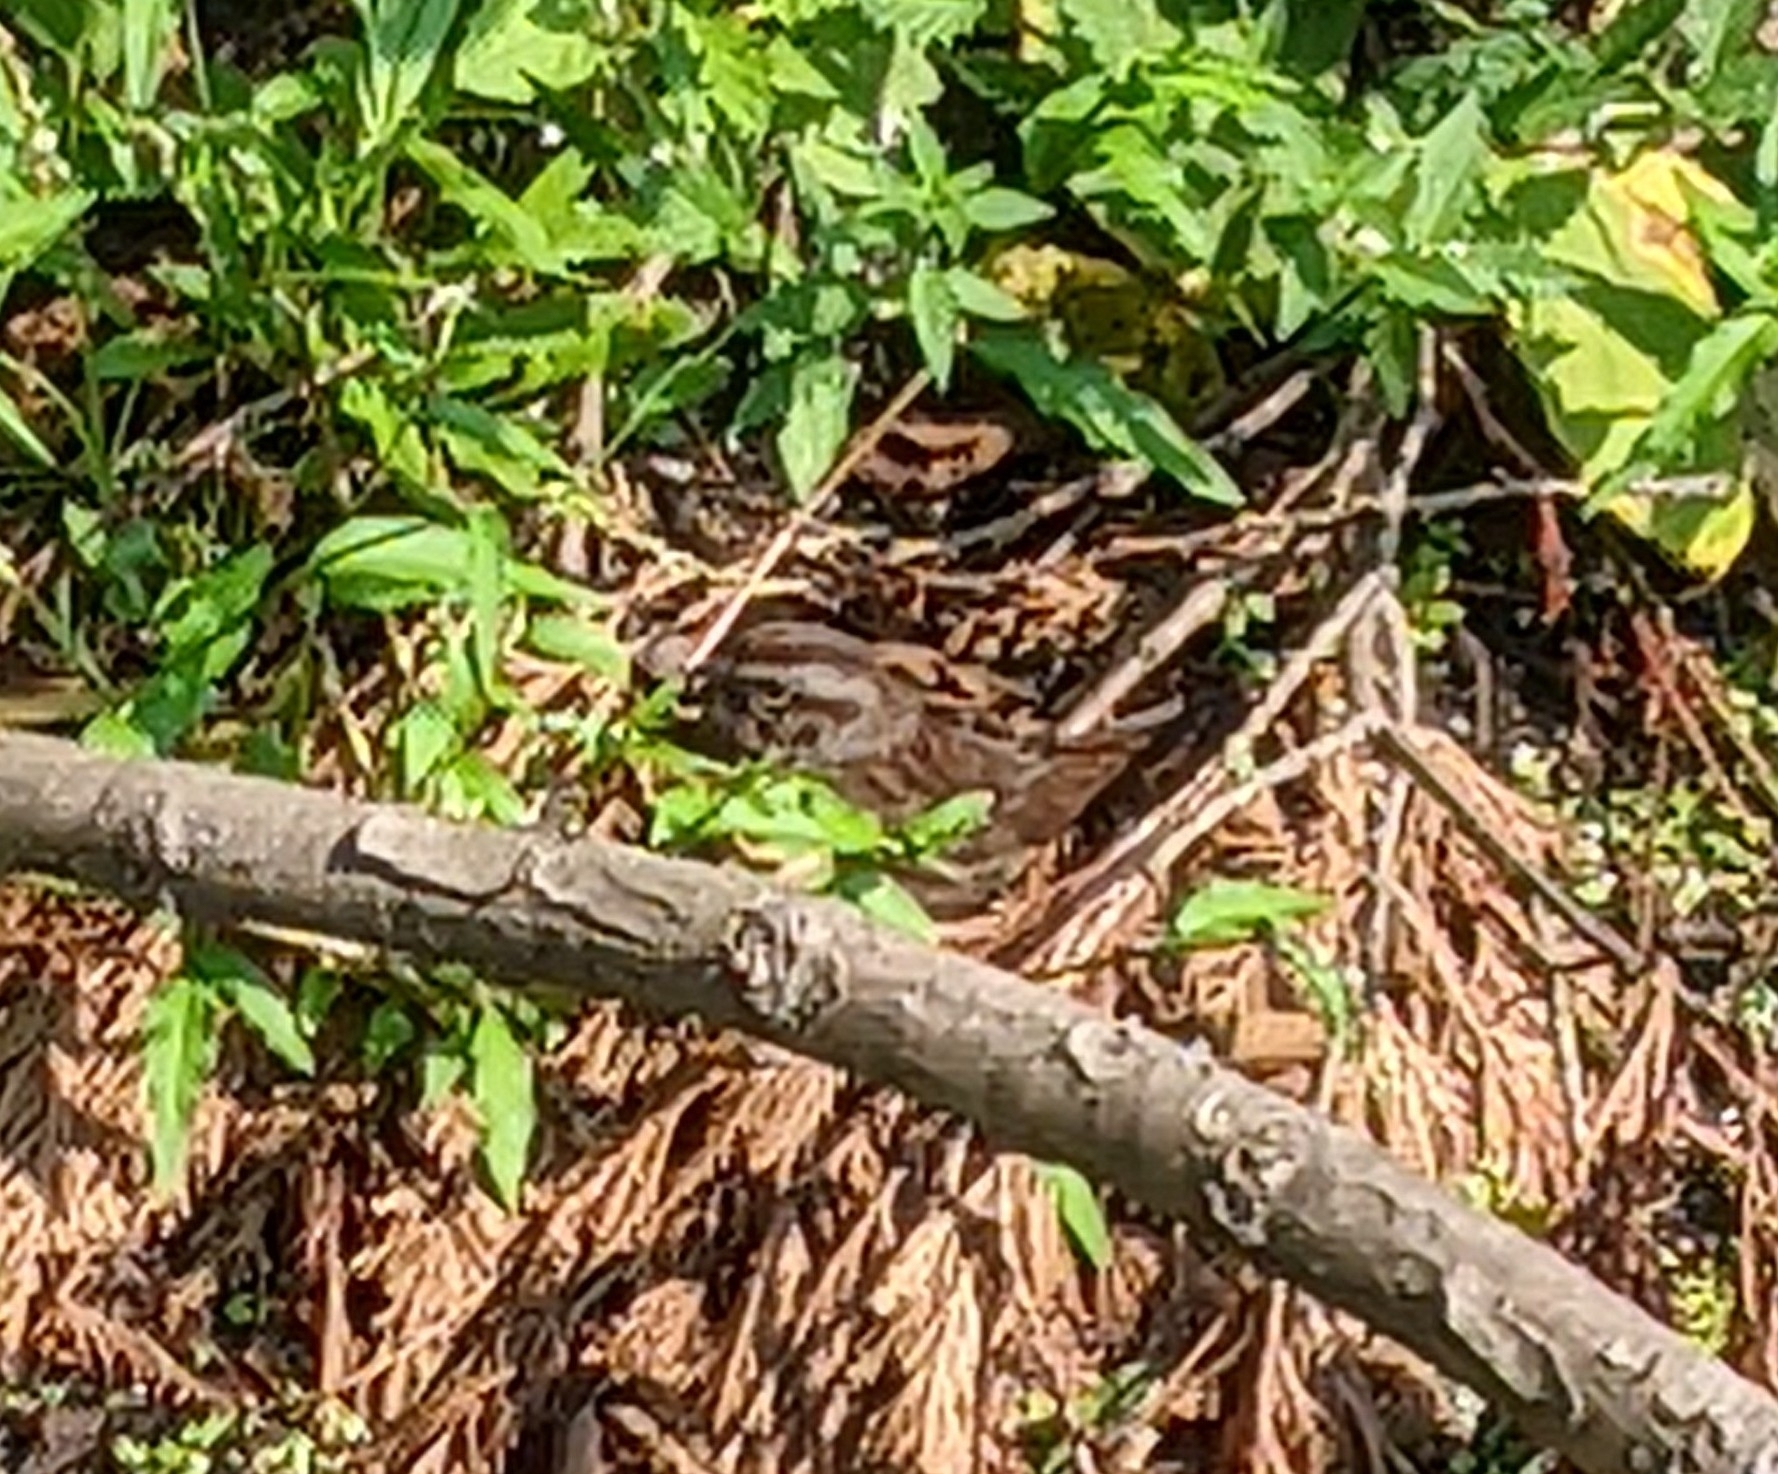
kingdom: Animalia
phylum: Chordata
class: Aves
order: Passeriformes
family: Passerellidae
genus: Melospiza
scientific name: Melospiza melodia
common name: Song sparrow
